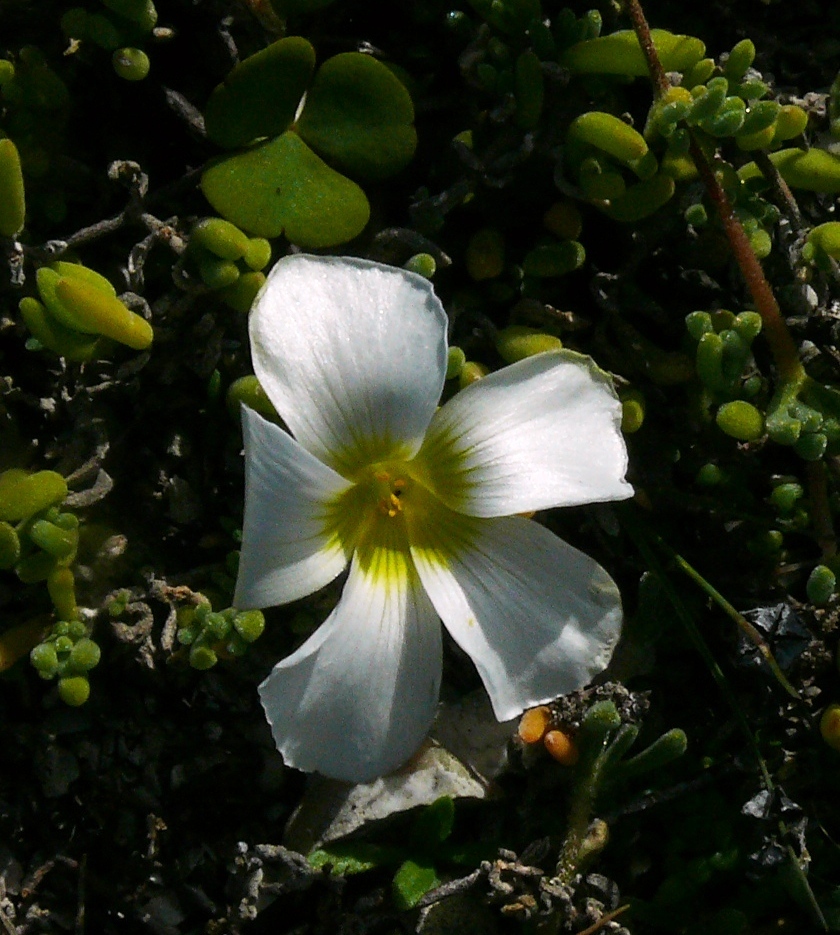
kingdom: Plantae
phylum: Tracheophyta
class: Magnoliopsida
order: Oxalidales
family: Oxalidaceae
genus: Oxalis
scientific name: Oxalis depressa
